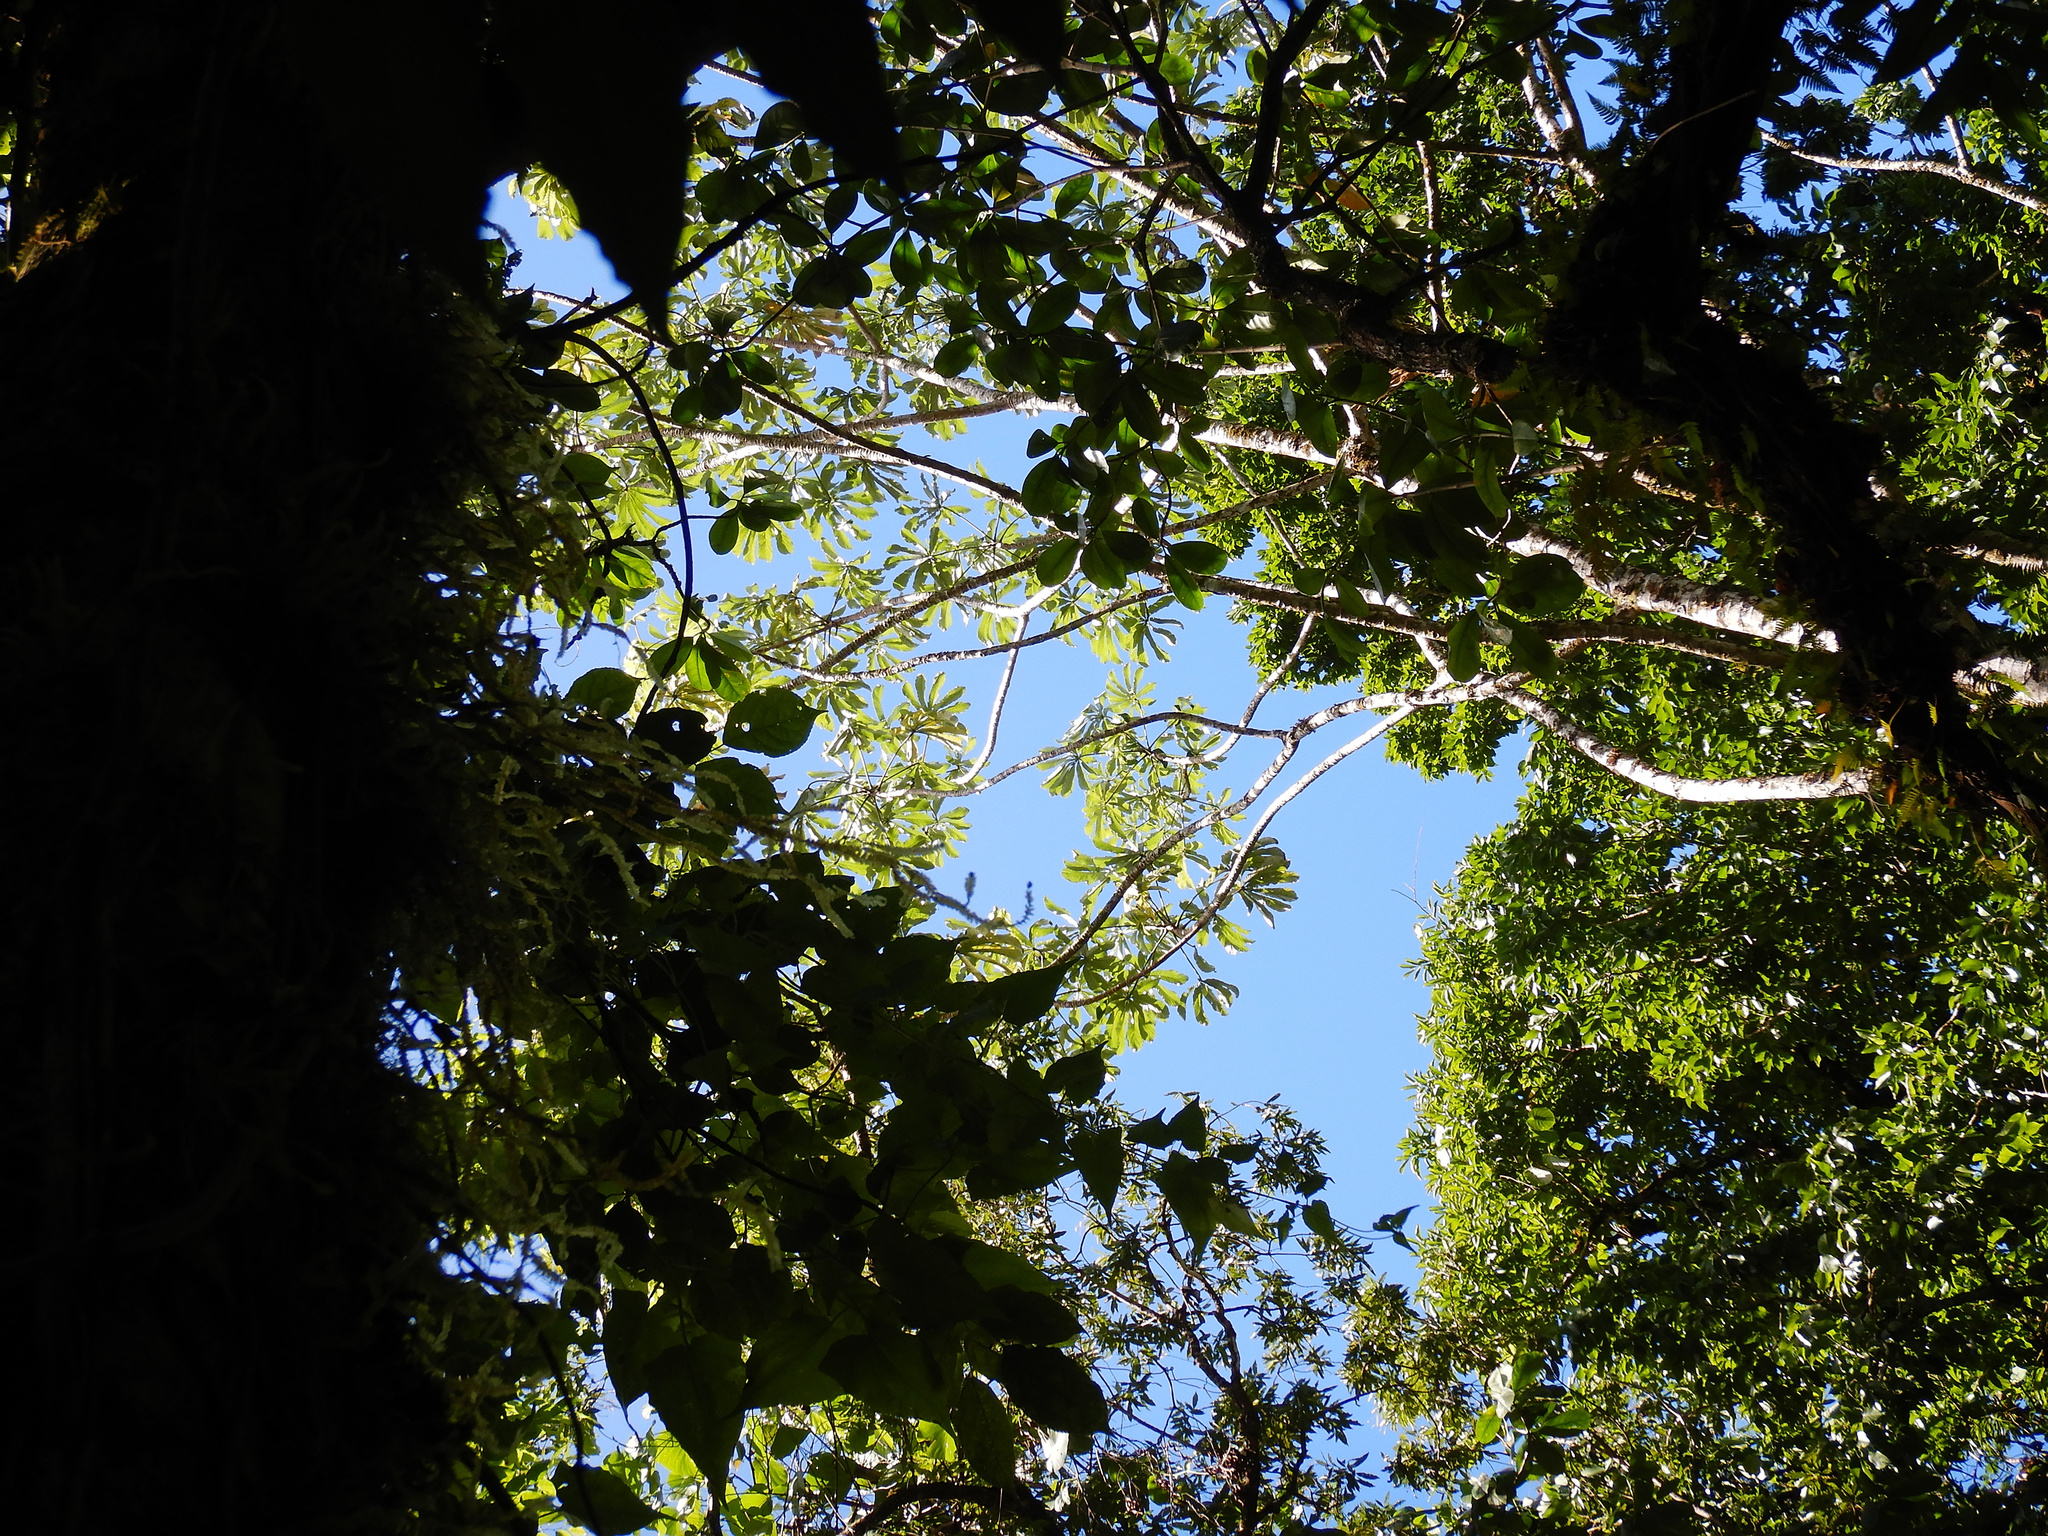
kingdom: Plantae
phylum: Tracheophyta
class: Magnoliopsida
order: Rosales
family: Urticaceae
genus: Cecropia
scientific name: Cecropia pachystachya
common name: Ambay pumpwood
